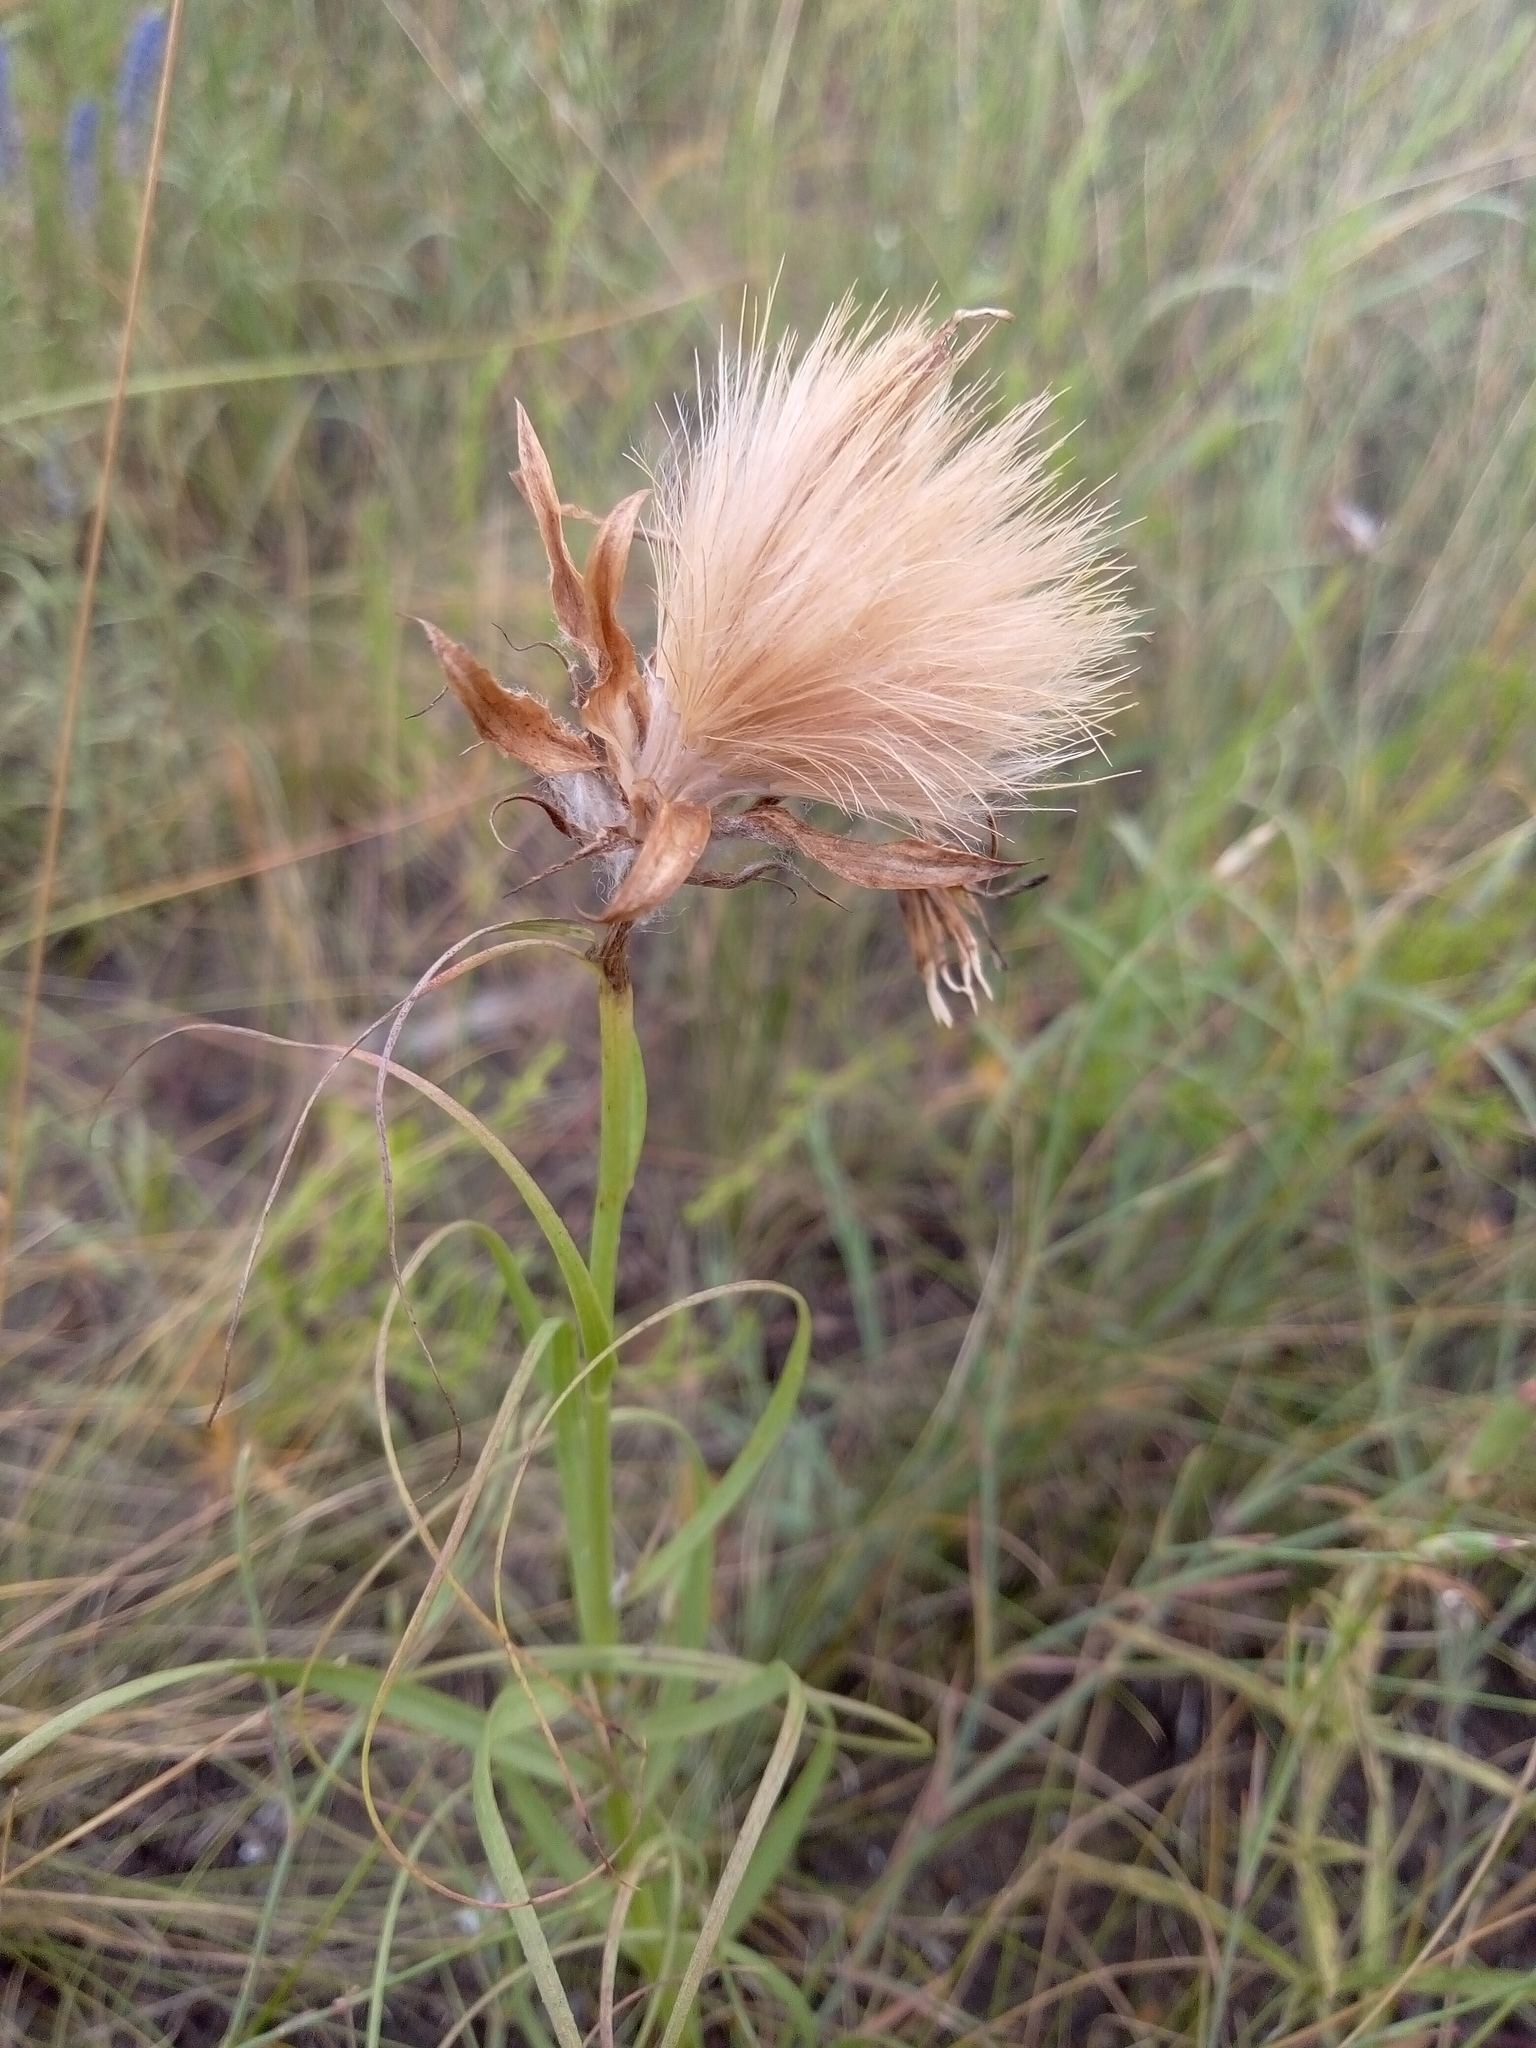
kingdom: Plantae
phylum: Tracheophyta
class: Magnoliopsida
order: Asterales
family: Asteraceae
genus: Gelasia
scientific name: Gelasia ensifolia
